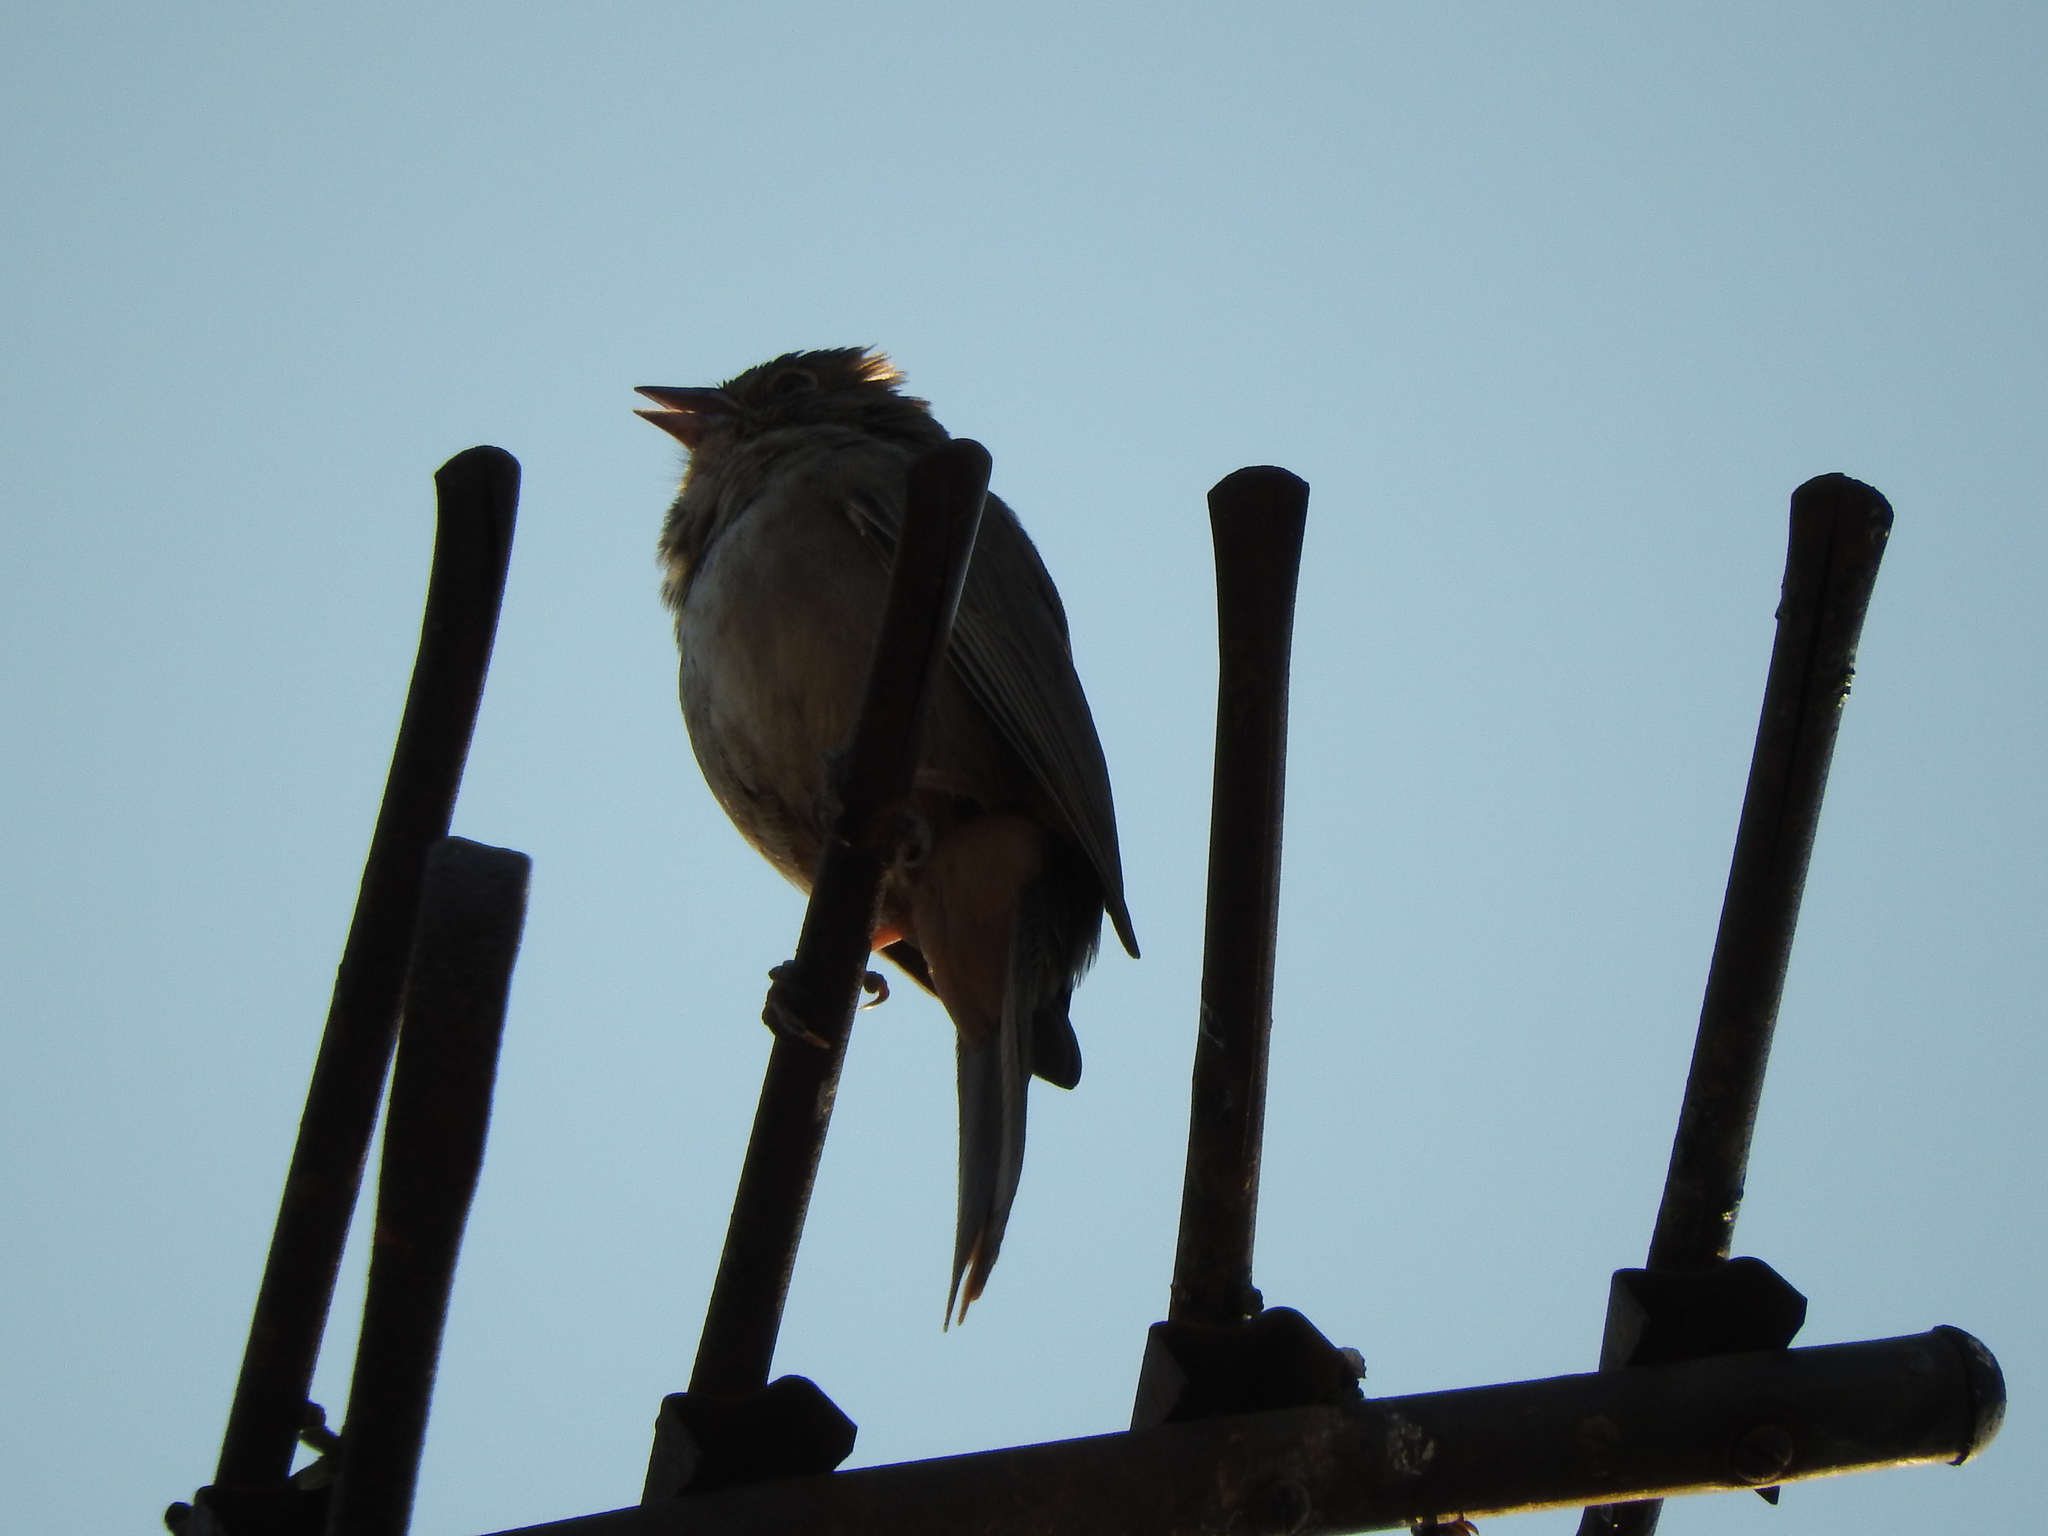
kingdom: Animalia
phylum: Chordata
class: Aves
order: Passeriformes
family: Passerellidae
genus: Melozone
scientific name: Melozone fusca
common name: Canyon towhee
